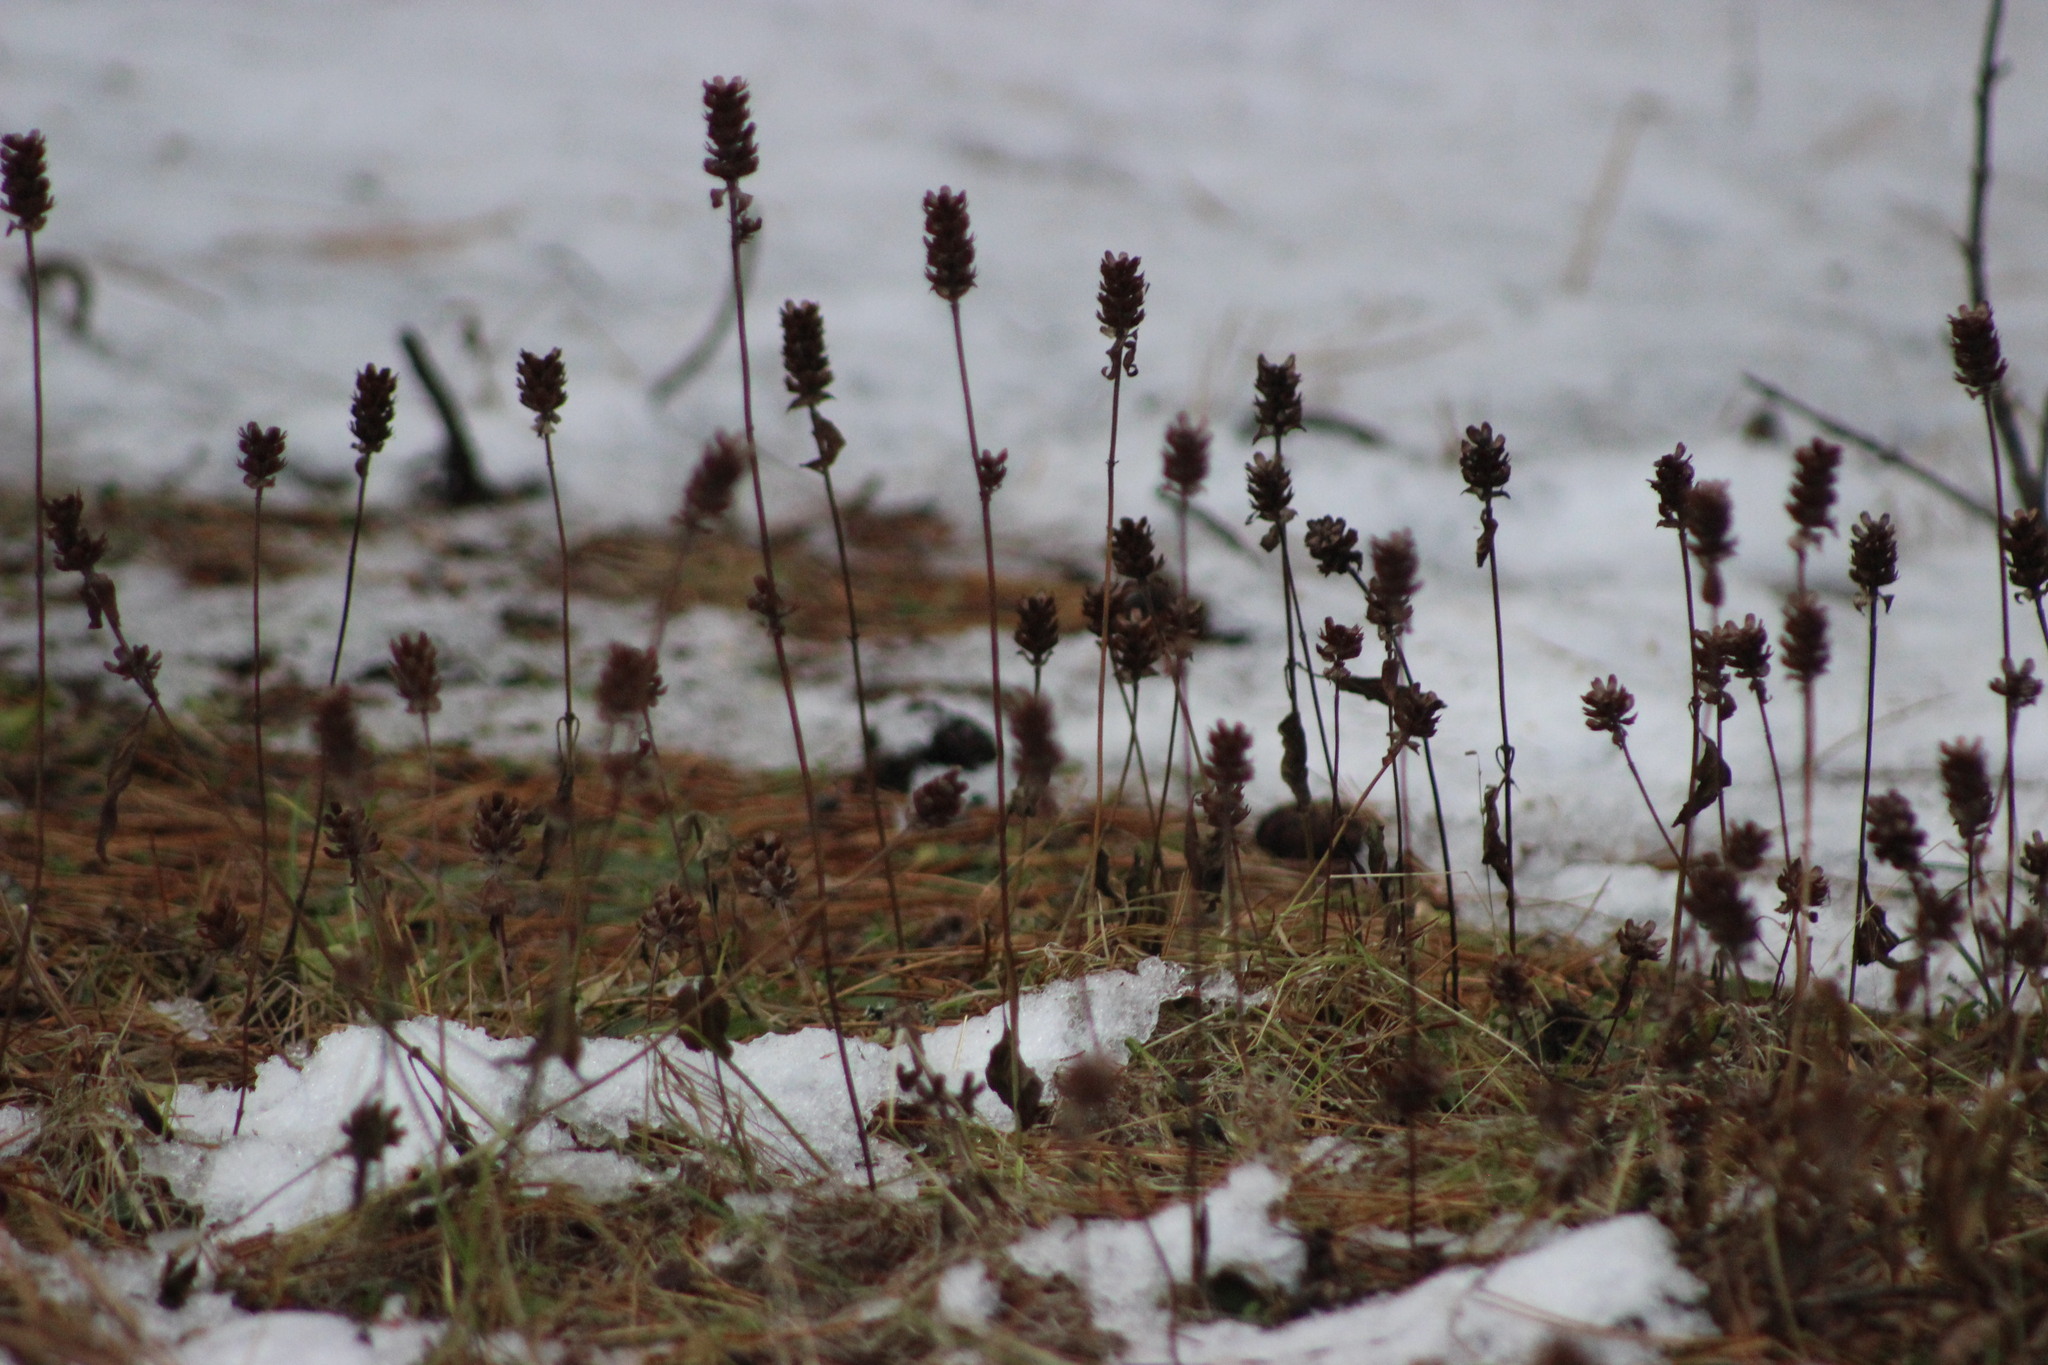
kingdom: Plantae
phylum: Tracheophyta
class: Magnoliopsida
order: Lamiales
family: Lamiaceae
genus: Prunella
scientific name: Prunella vulgaris
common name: Heal-all
